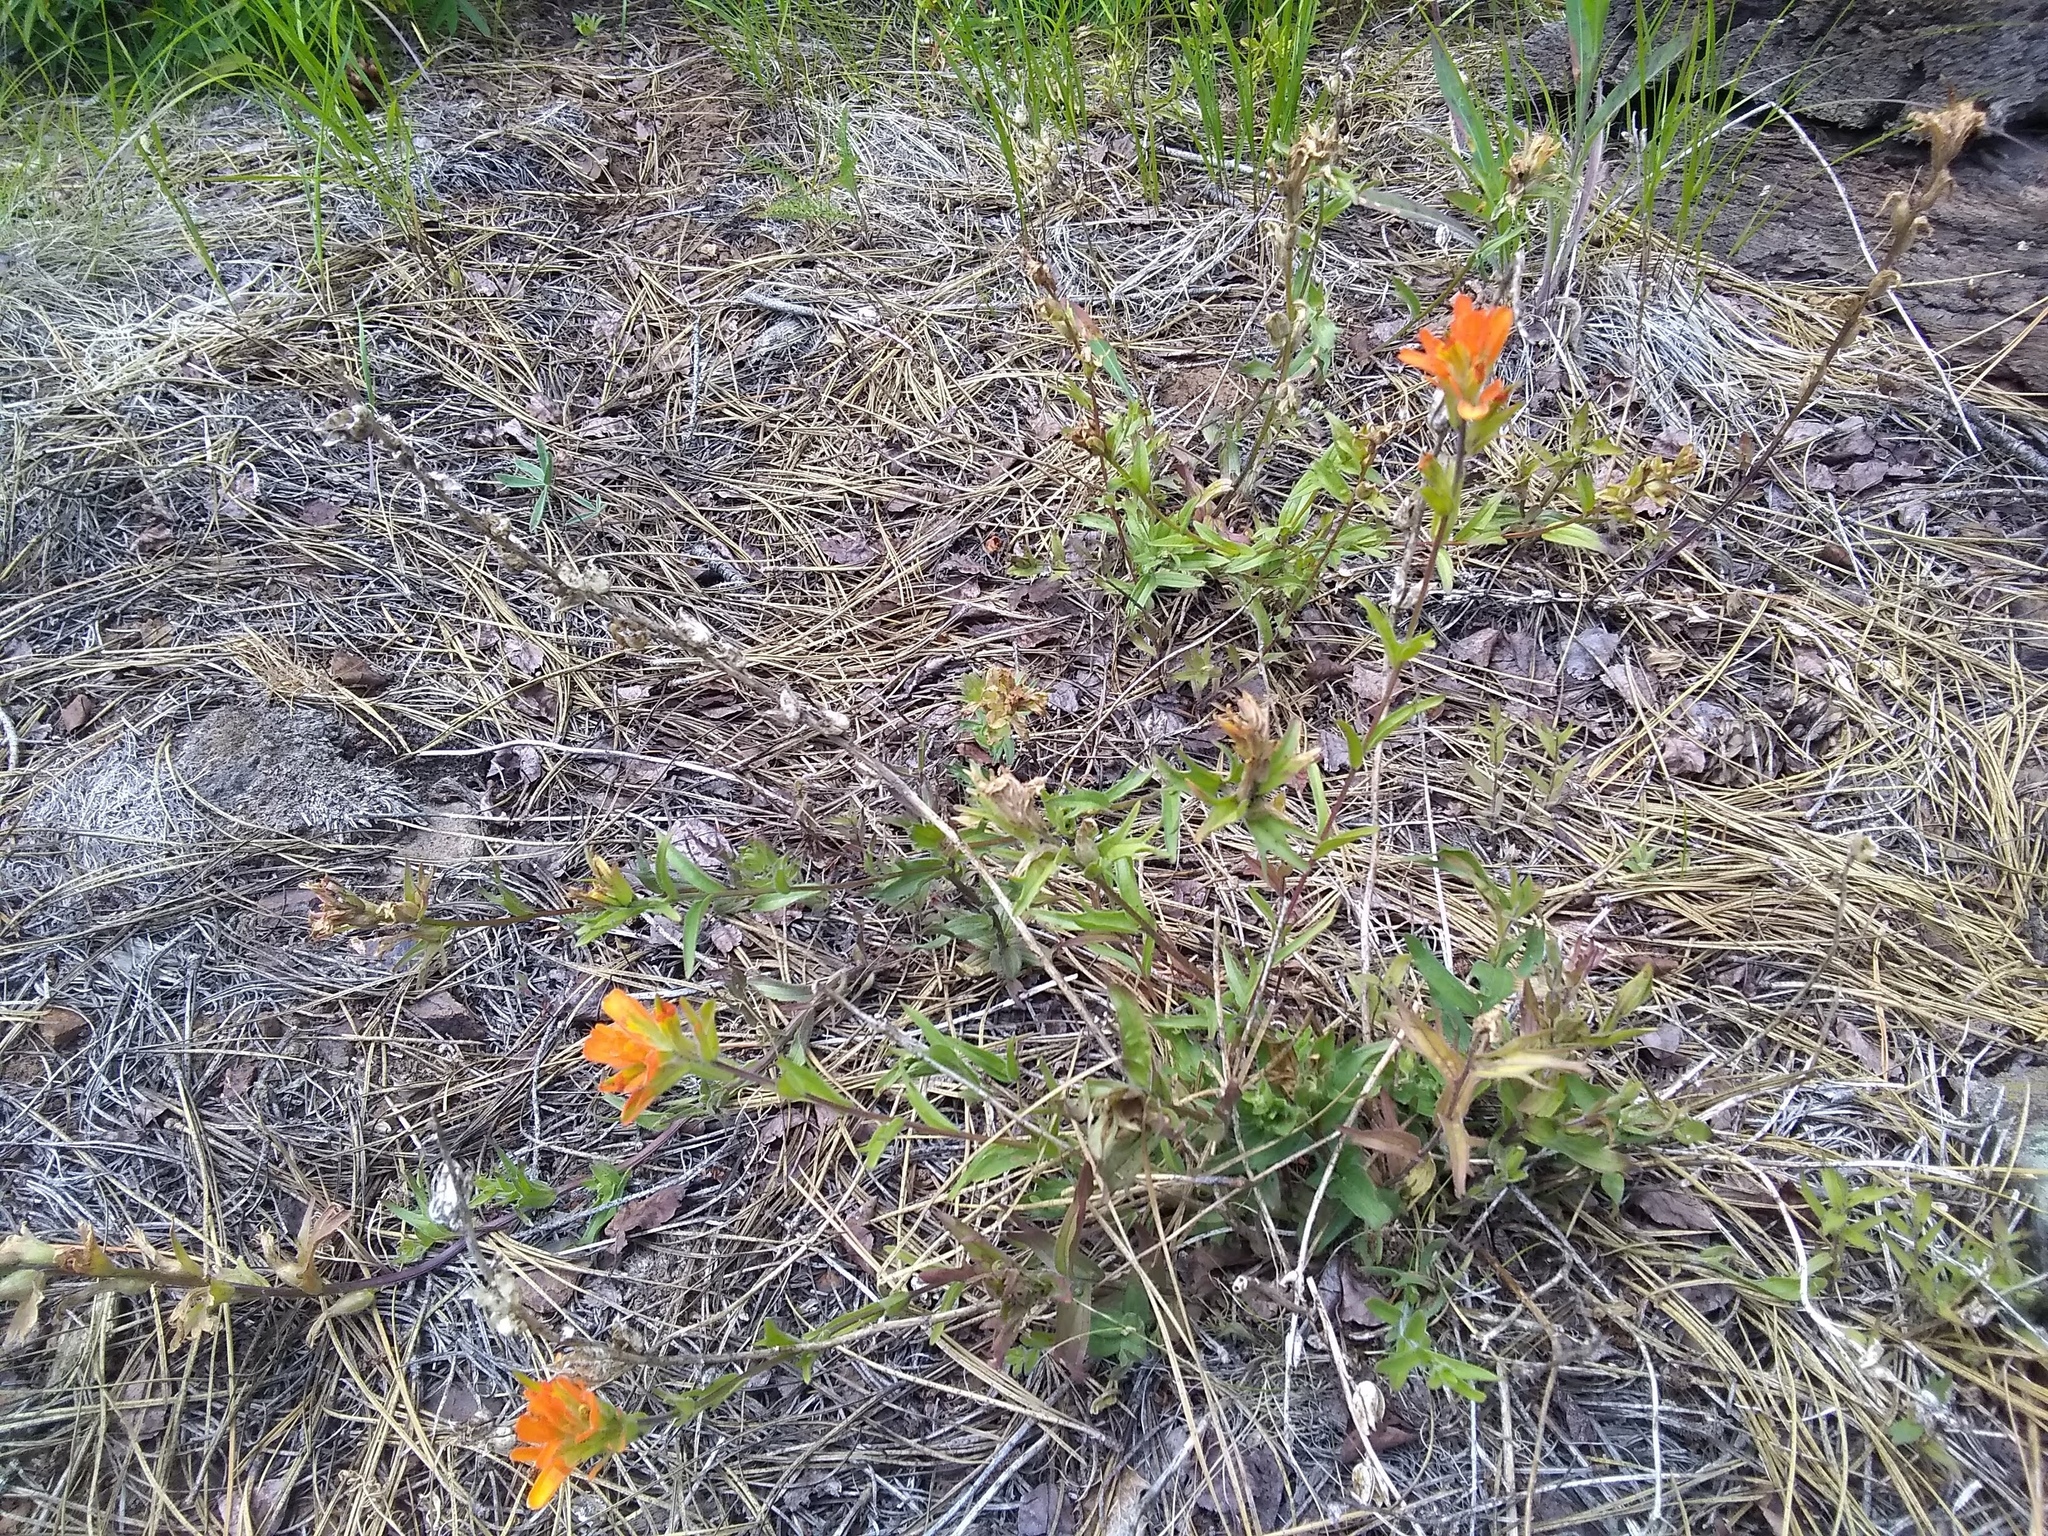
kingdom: Plantae
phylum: Tracheophyta
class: Magnoliopsida
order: Lamiales
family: Orobanchaceae
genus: Castilleja
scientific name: Castilleja hispida
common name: Bristly paintbrush
